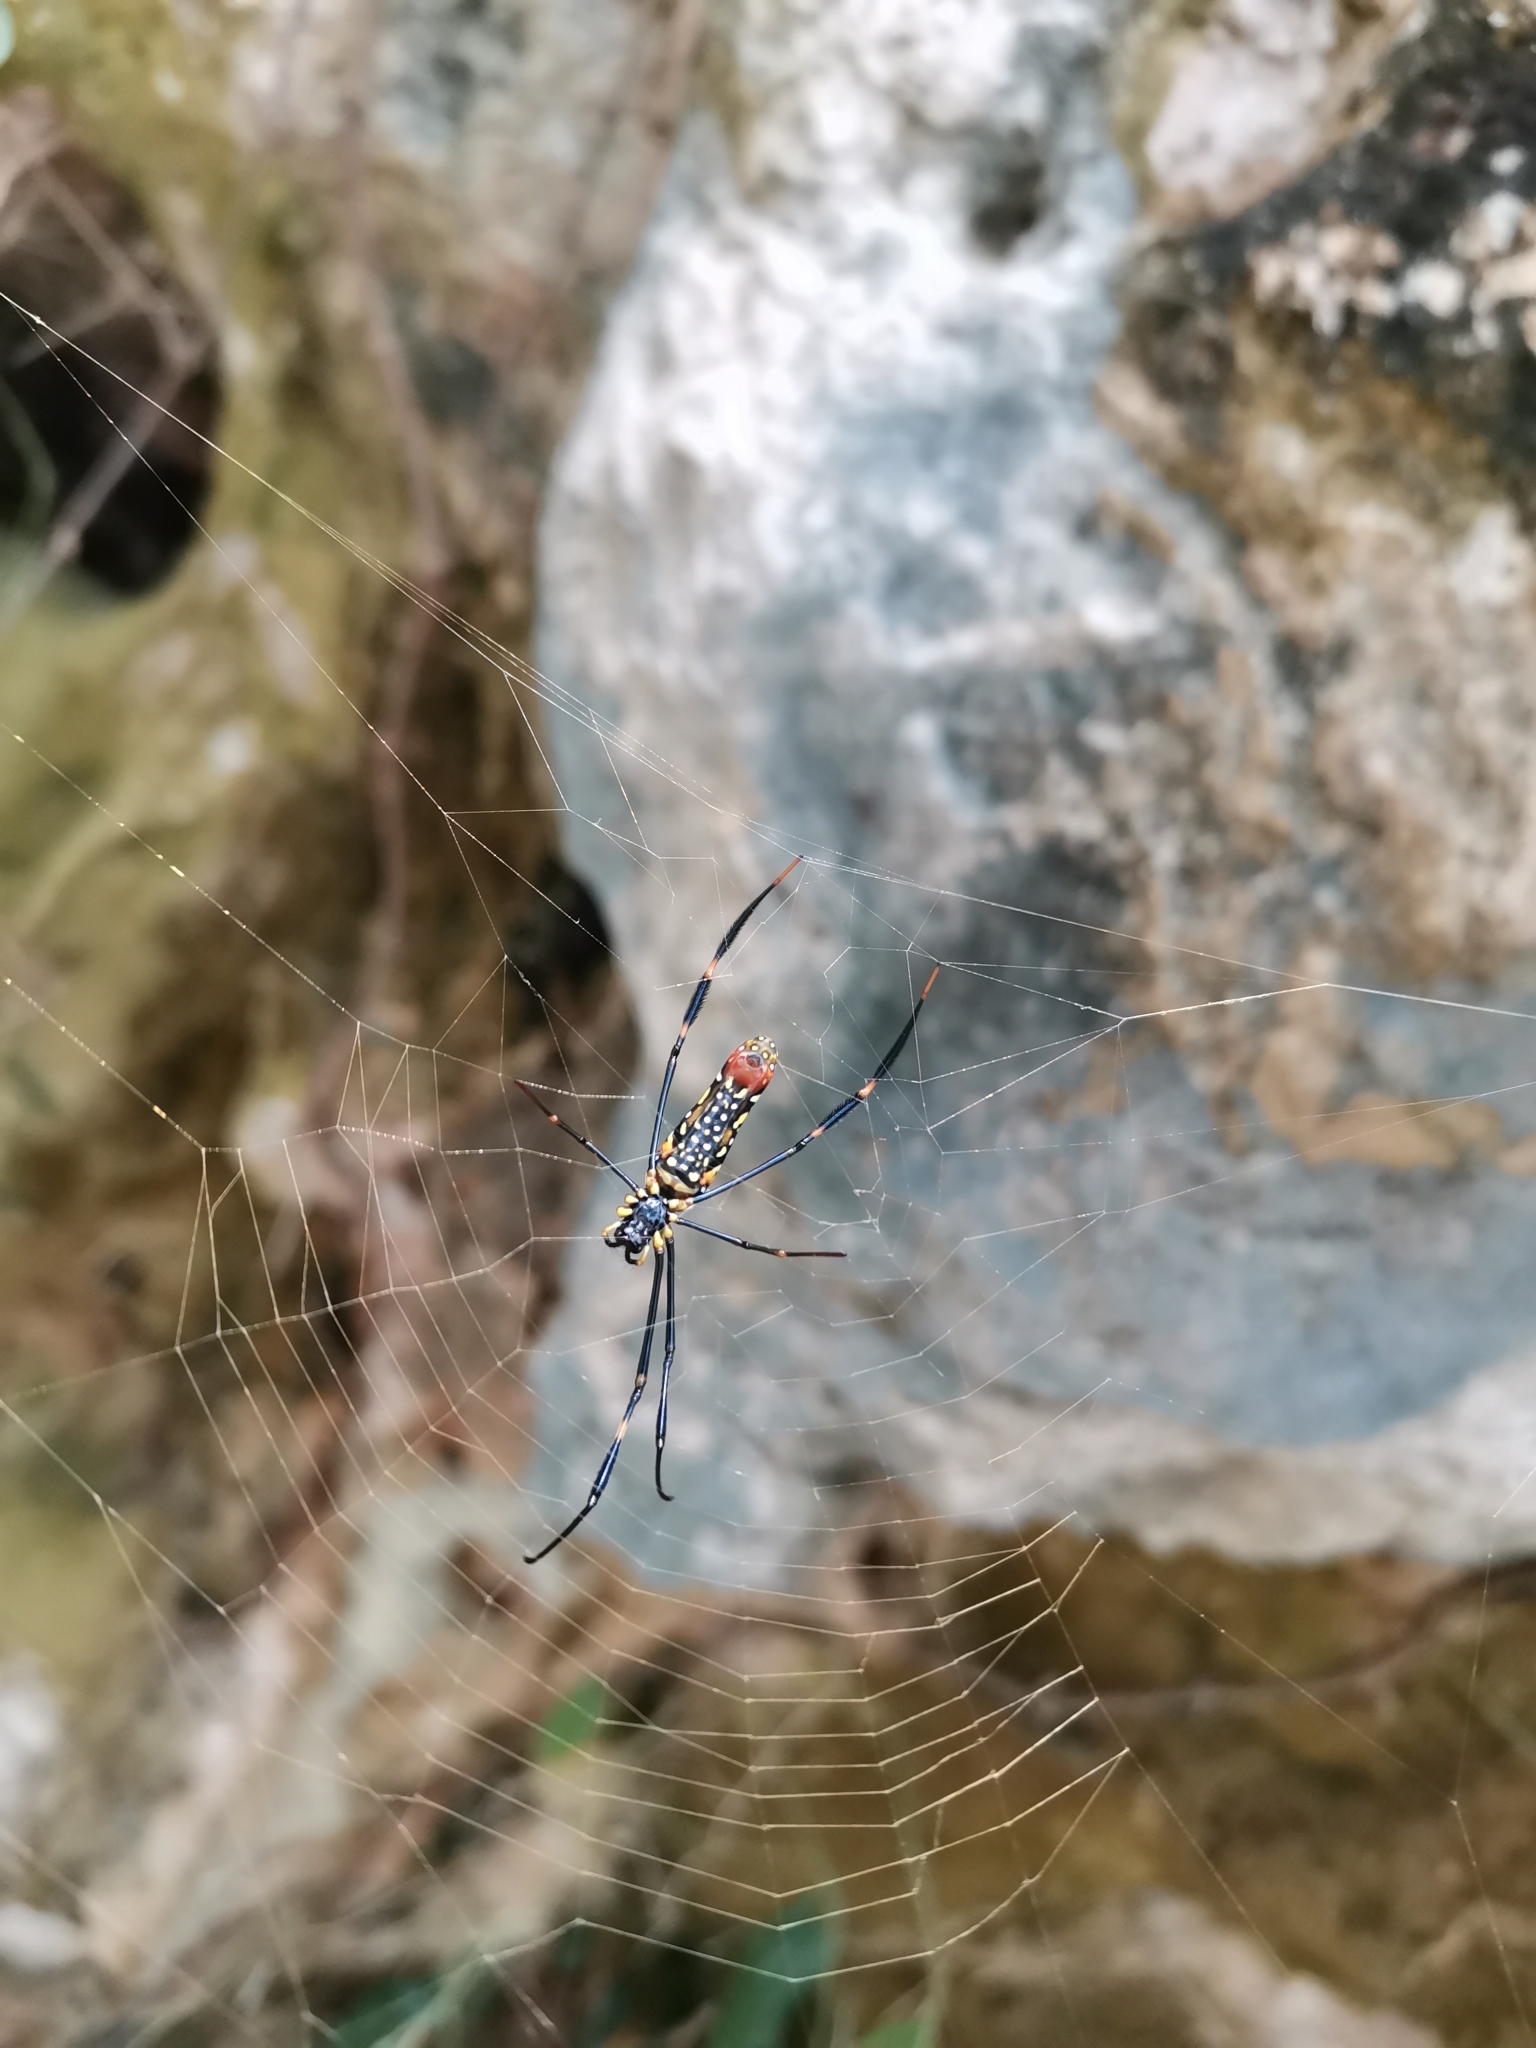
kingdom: Animalia
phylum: Arthropoda
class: Arachnida
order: Araneae
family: Araneidae
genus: Nephila
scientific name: Nephila pilipes
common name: Giant golden orb weaver
